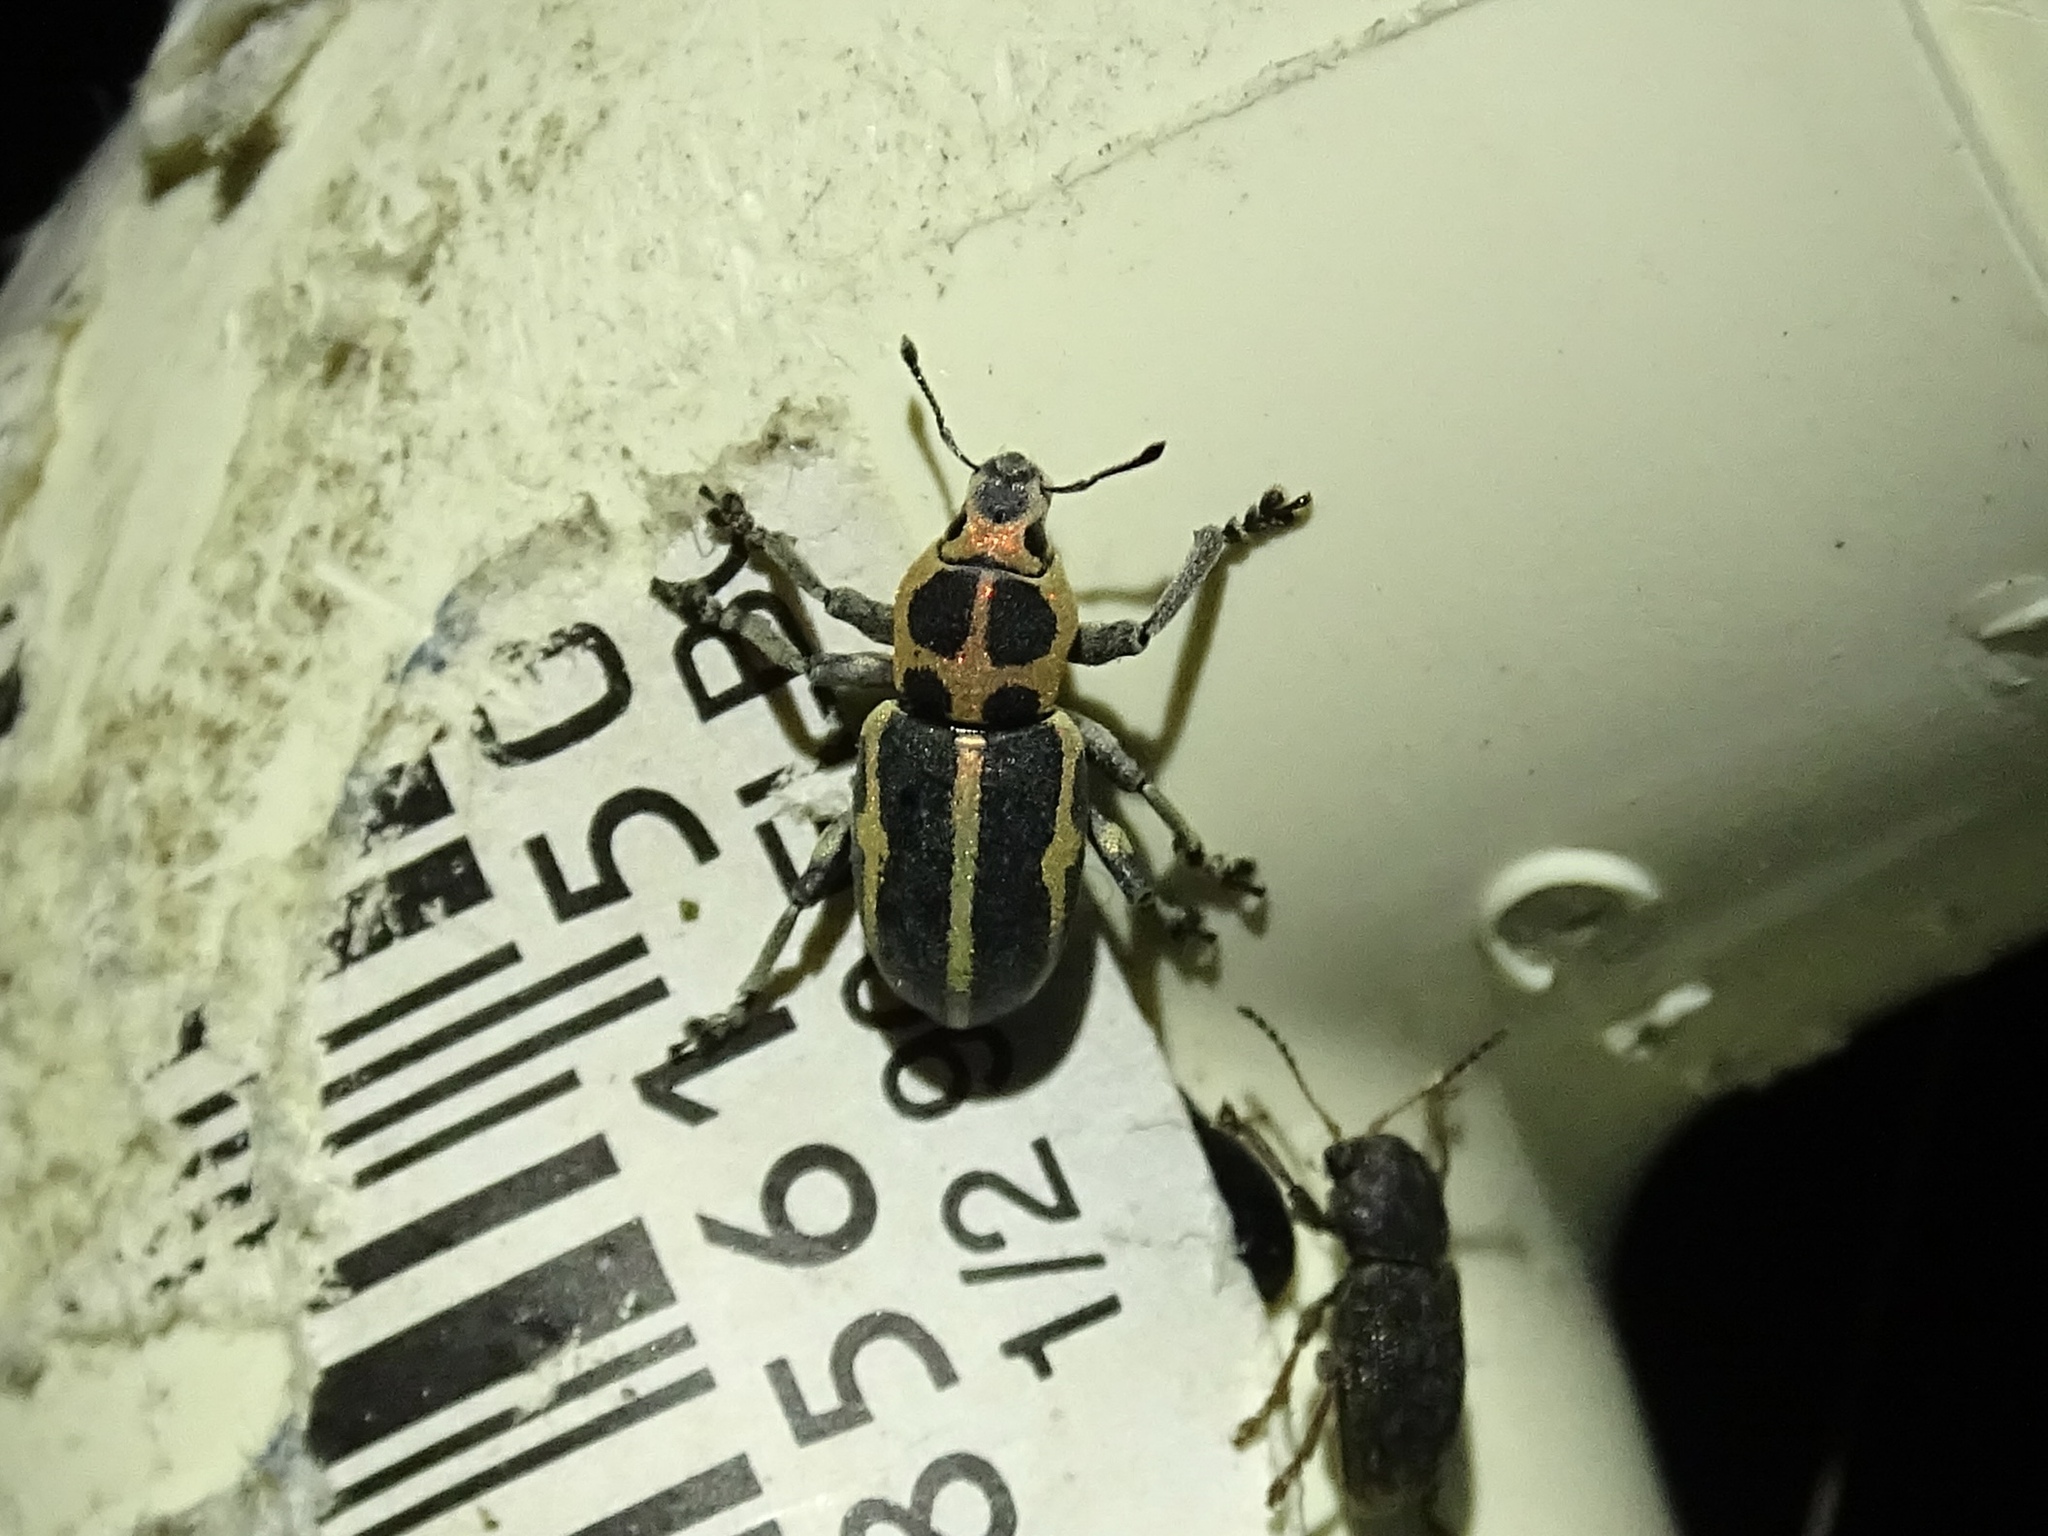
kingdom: Animalia
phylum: Arthropoda
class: Insecta
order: Coleoptera
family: Curculionidae
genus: Eudiagogus
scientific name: Eudiagogus pulcher
